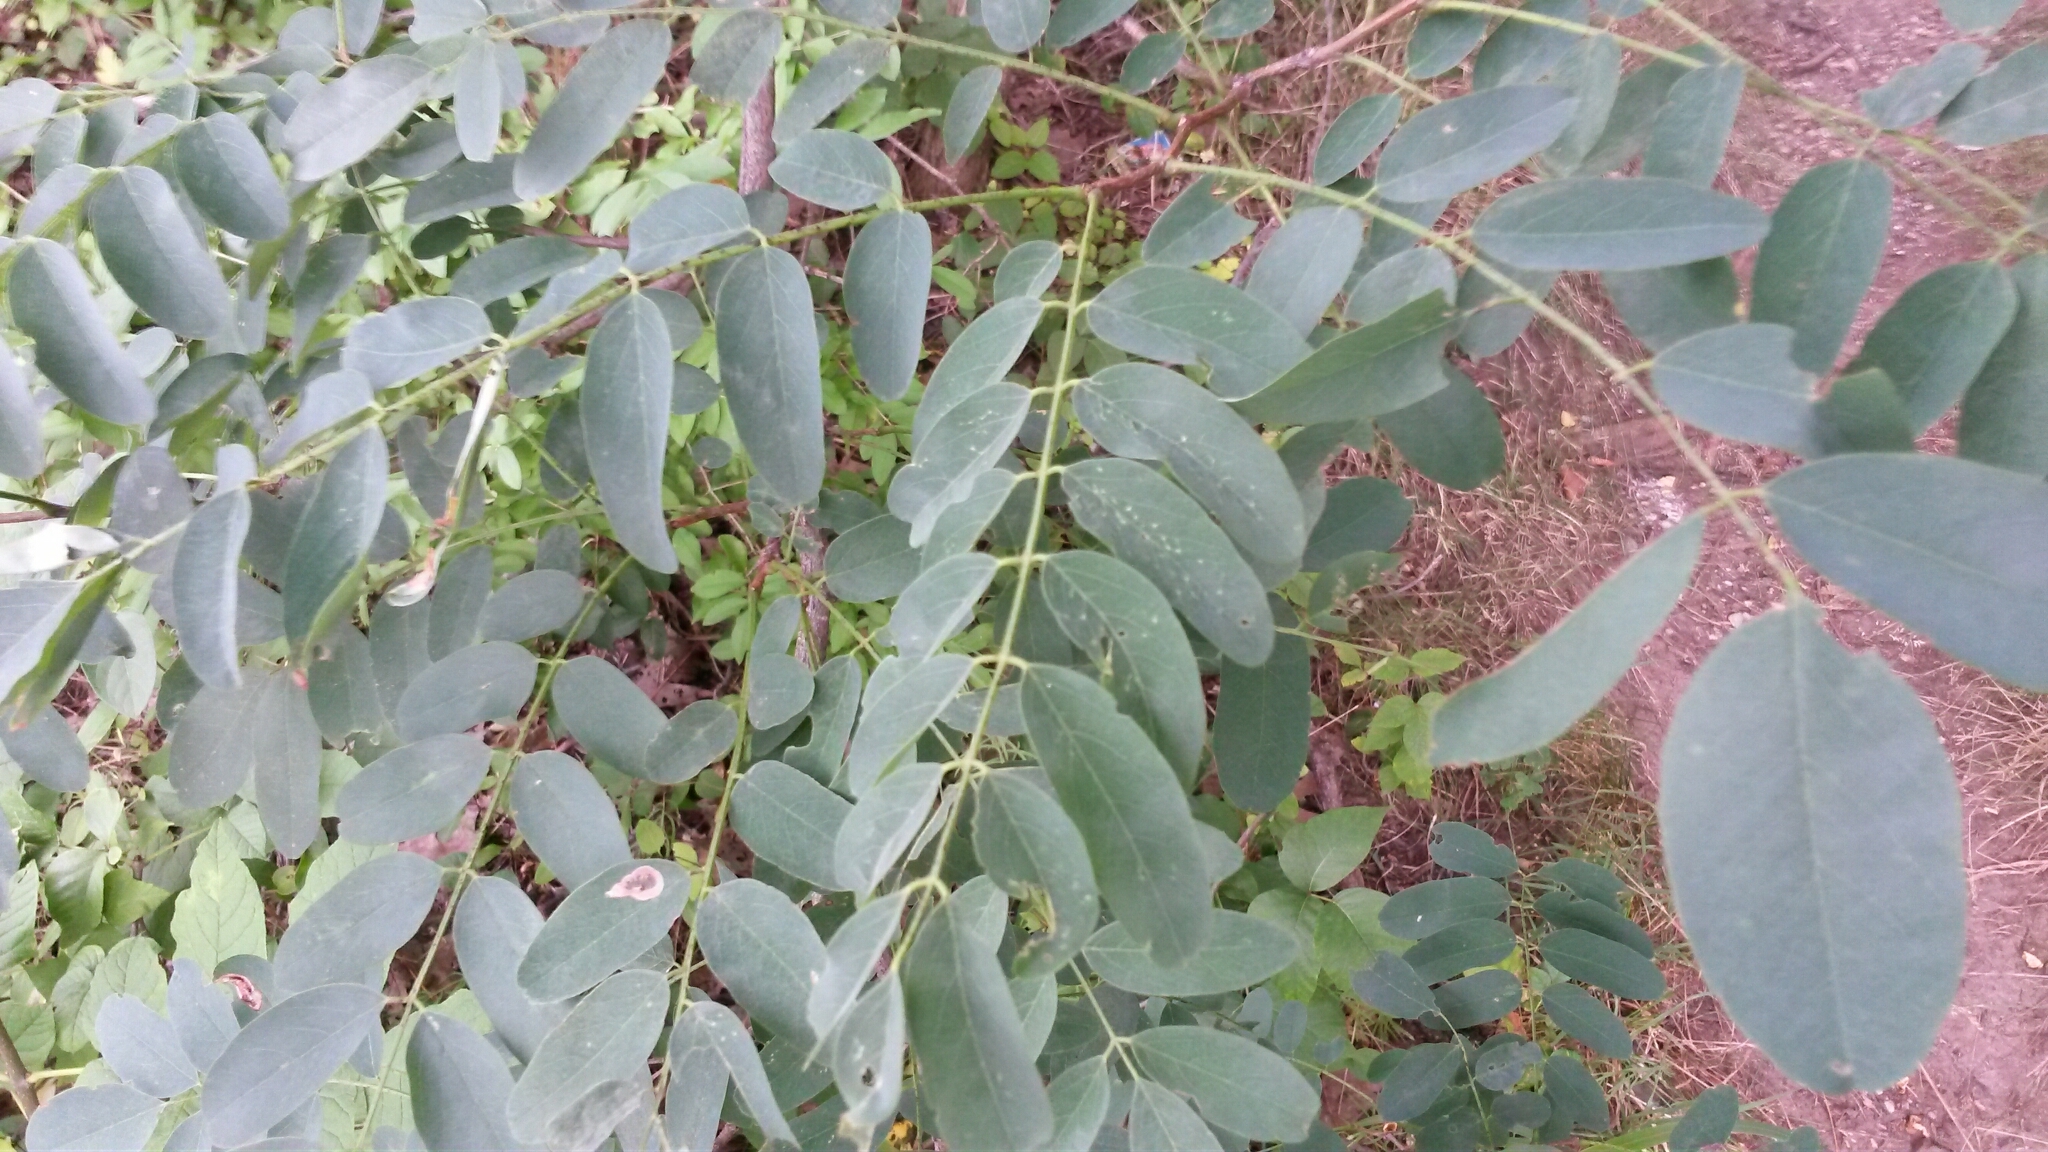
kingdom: Plantae
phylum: Tracheophyta
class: Magnoliopsida
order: Fabales
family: Fabaceae
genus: Robinia
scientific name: Robinia pseudoacacia
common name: Black locust
